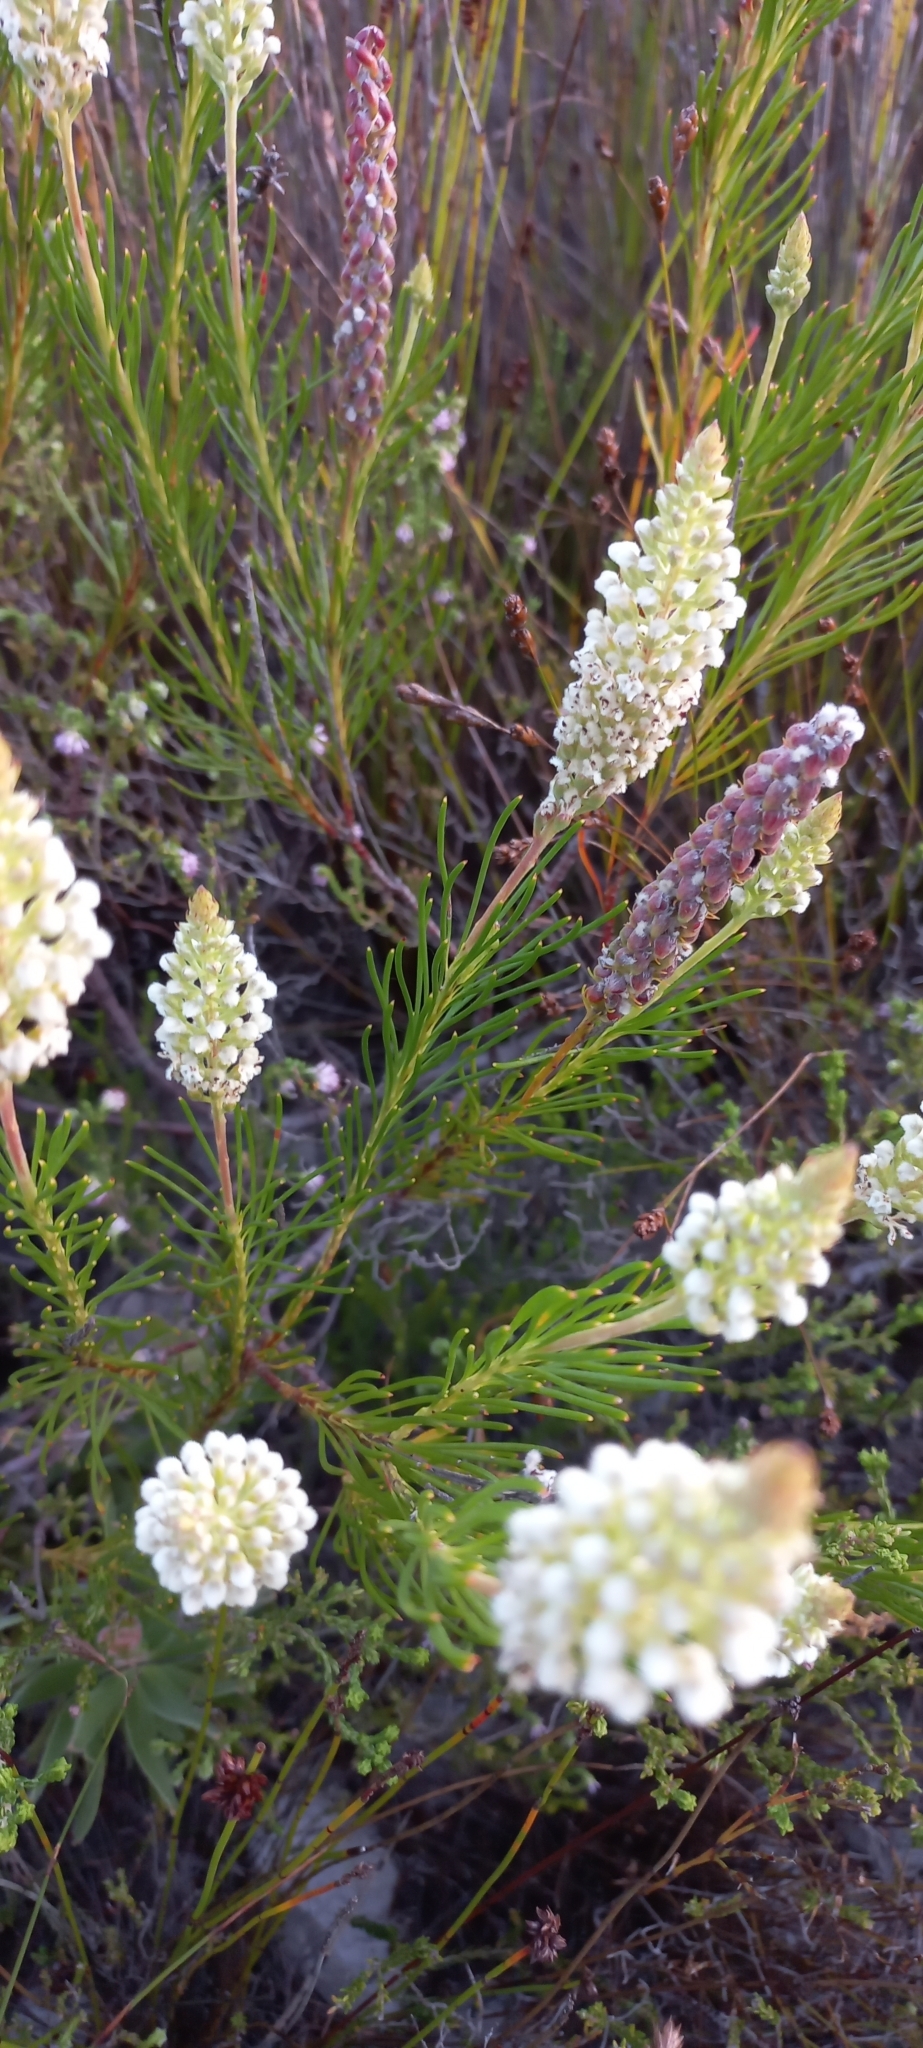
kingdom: Plantae
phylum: Tracheophyta
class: Magnoliopsida
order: Proteales
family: Proteaceae
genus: Spatalla
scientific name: Spatalla curvifolia
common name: White-stalked spoon
